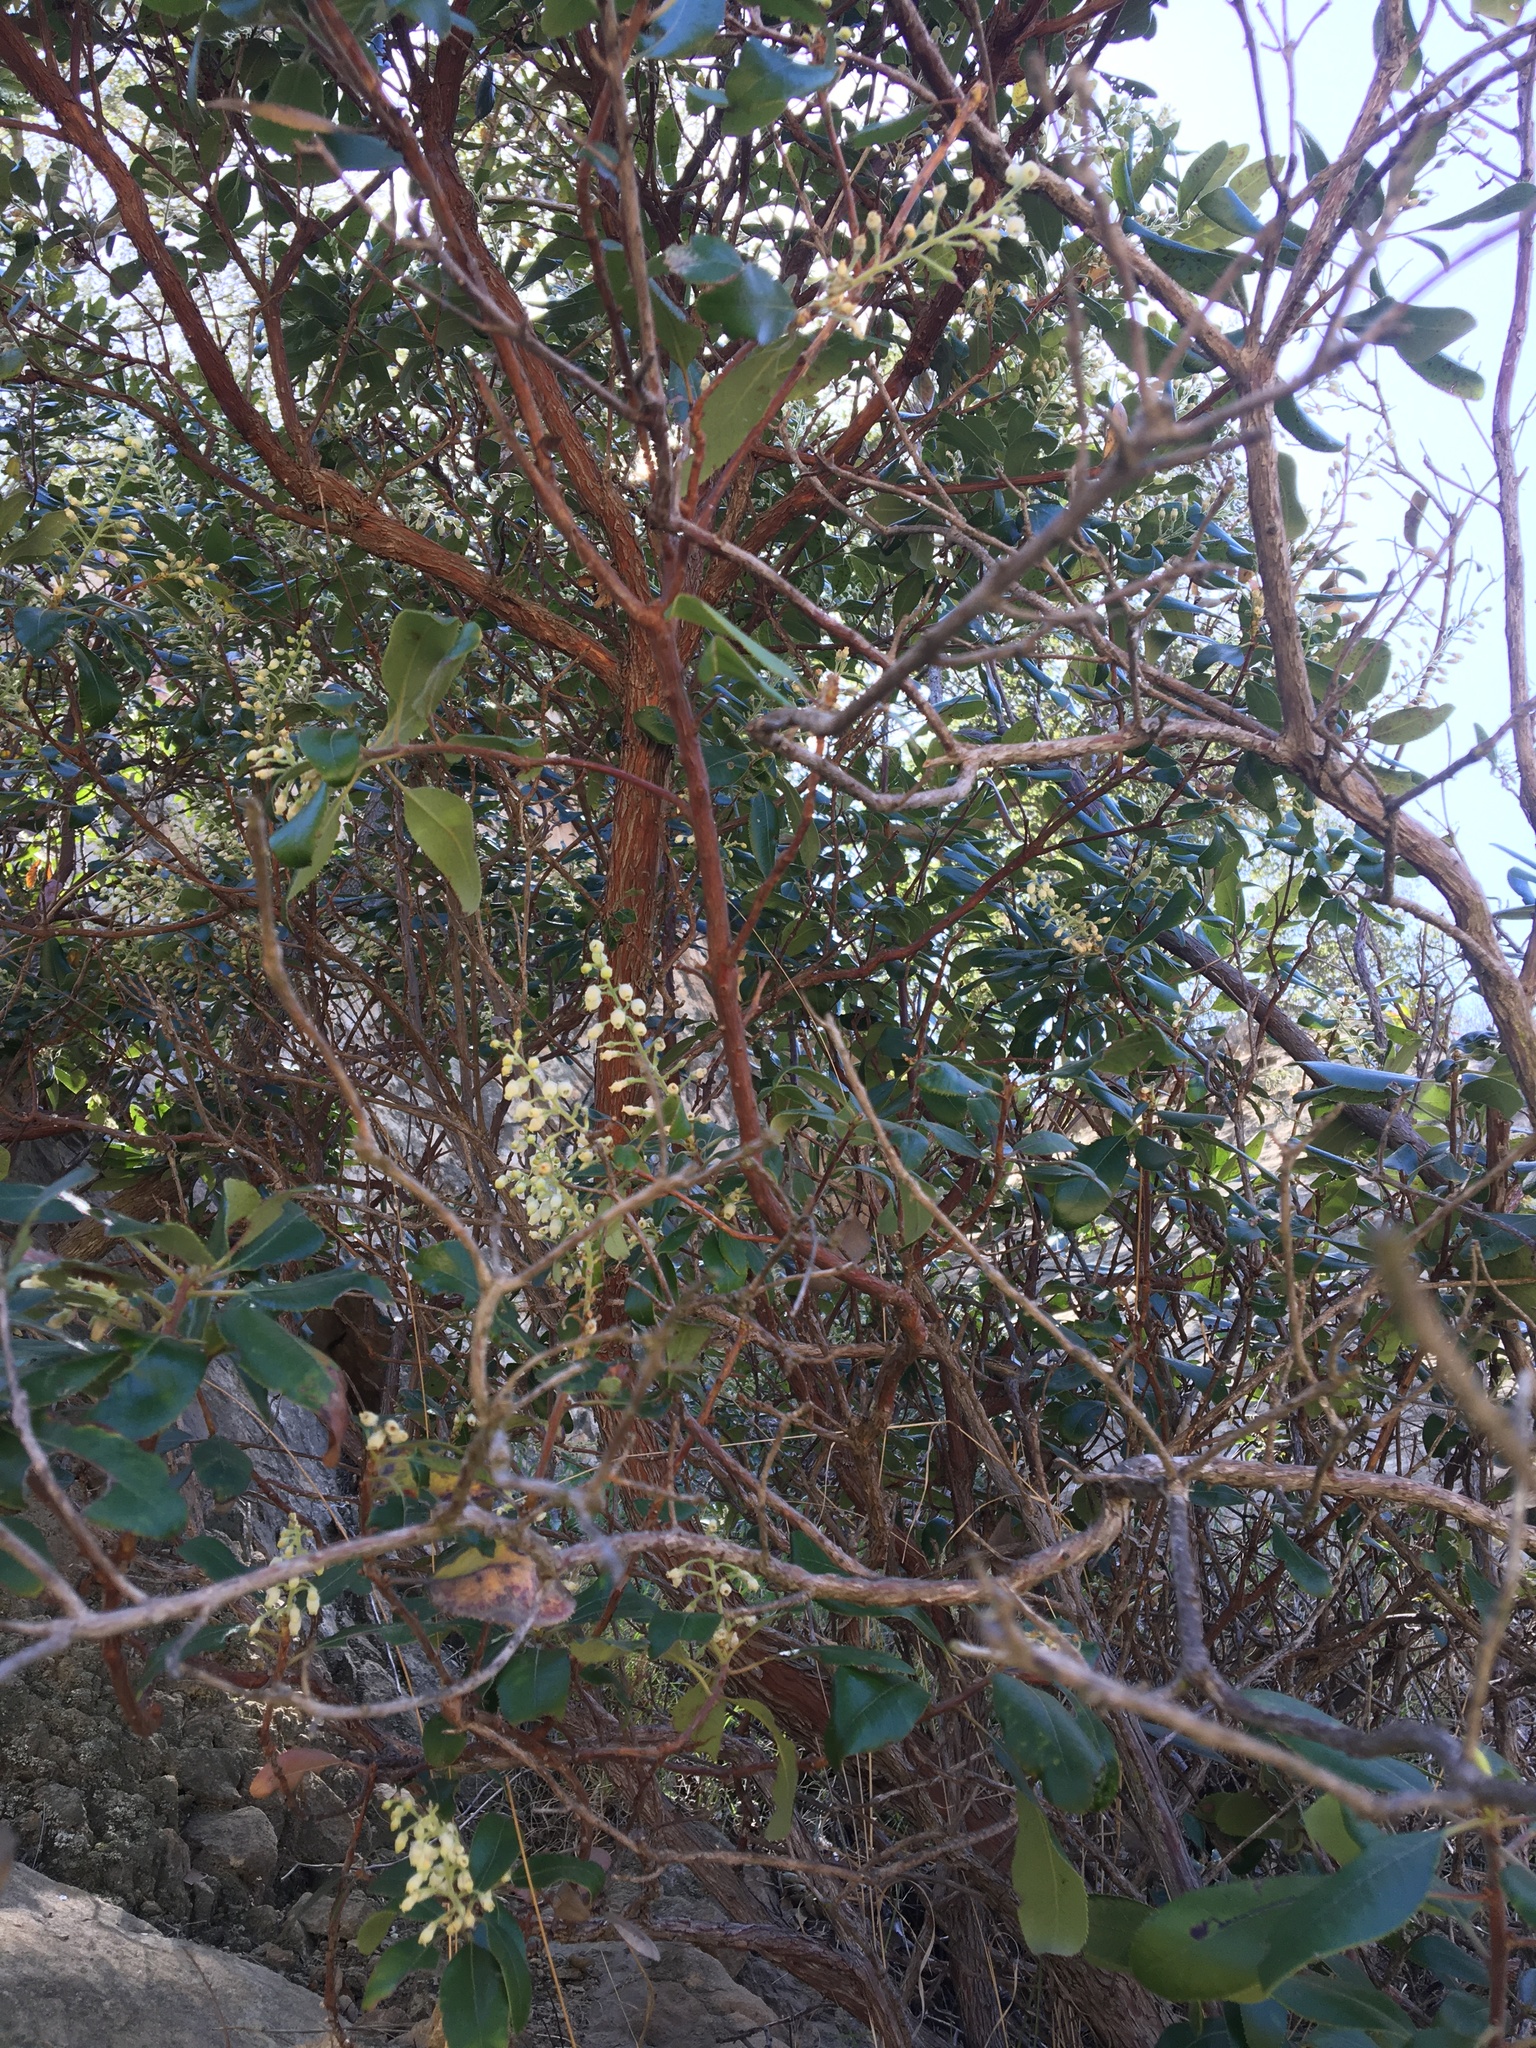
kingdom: Plantae
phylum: Tracheophyta
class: Magnoliopsida
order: Ericales
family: Ericaceae
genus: Comarostaphylis
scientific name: Comarostaphylis diversifolia
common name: Summer-holly
